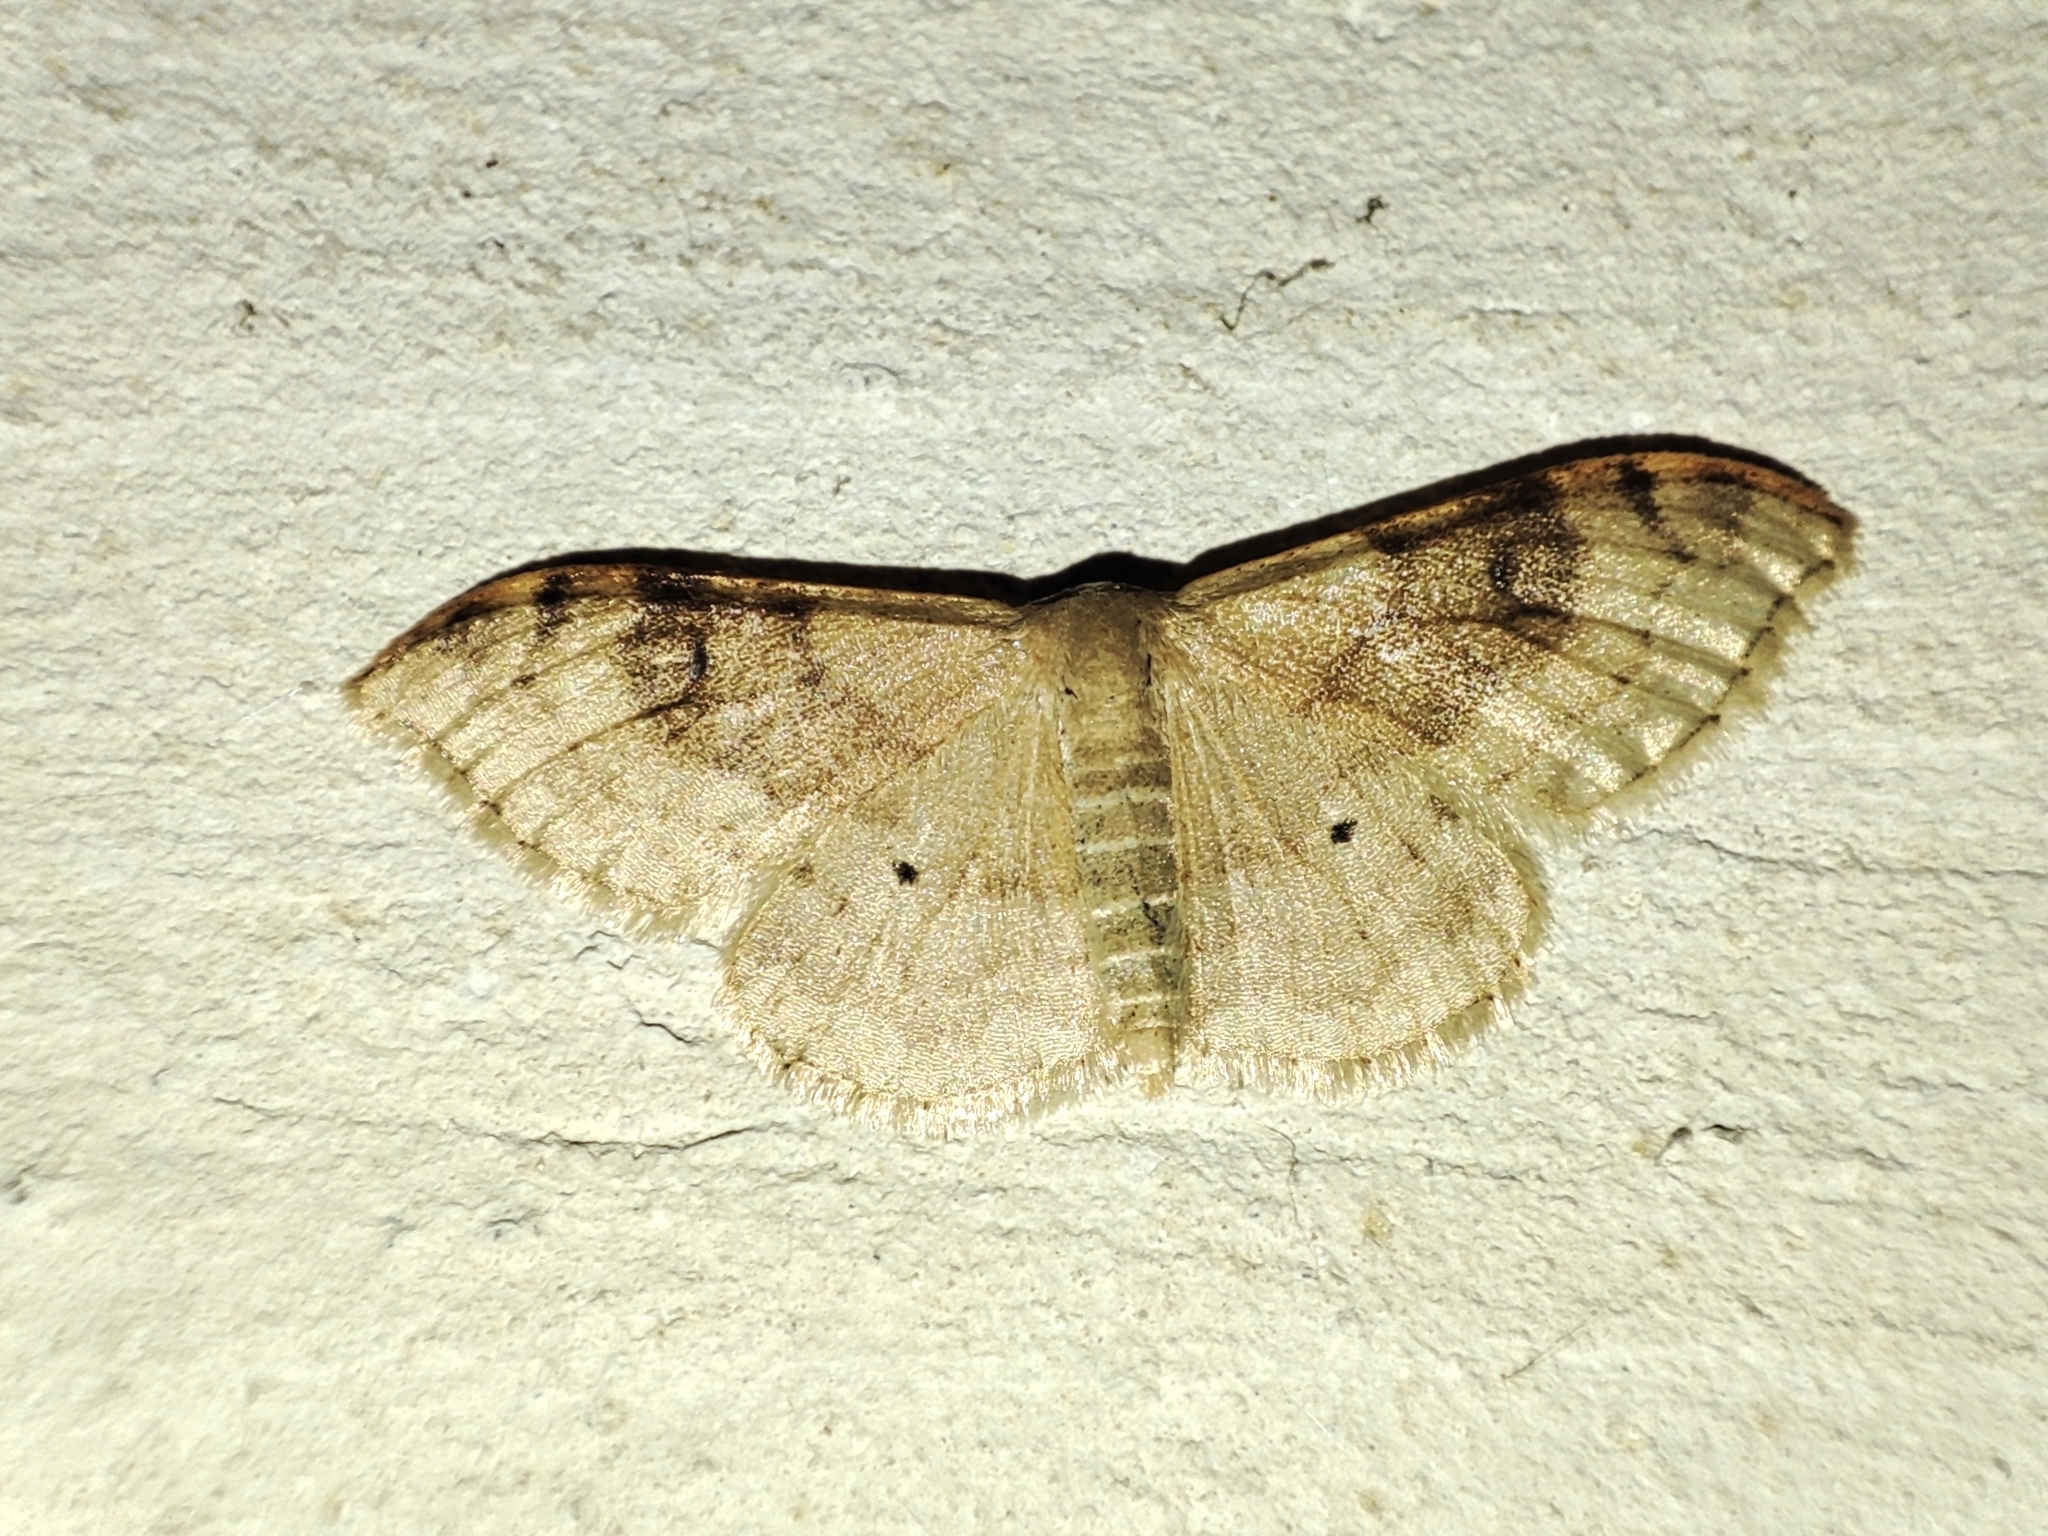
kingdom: Animalia
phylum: Arthropoda
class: Insecta
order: Lepidoptera
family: Geometridae
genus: Idaea
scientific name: Idaea degeneraria
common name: Portland ribbon wave
